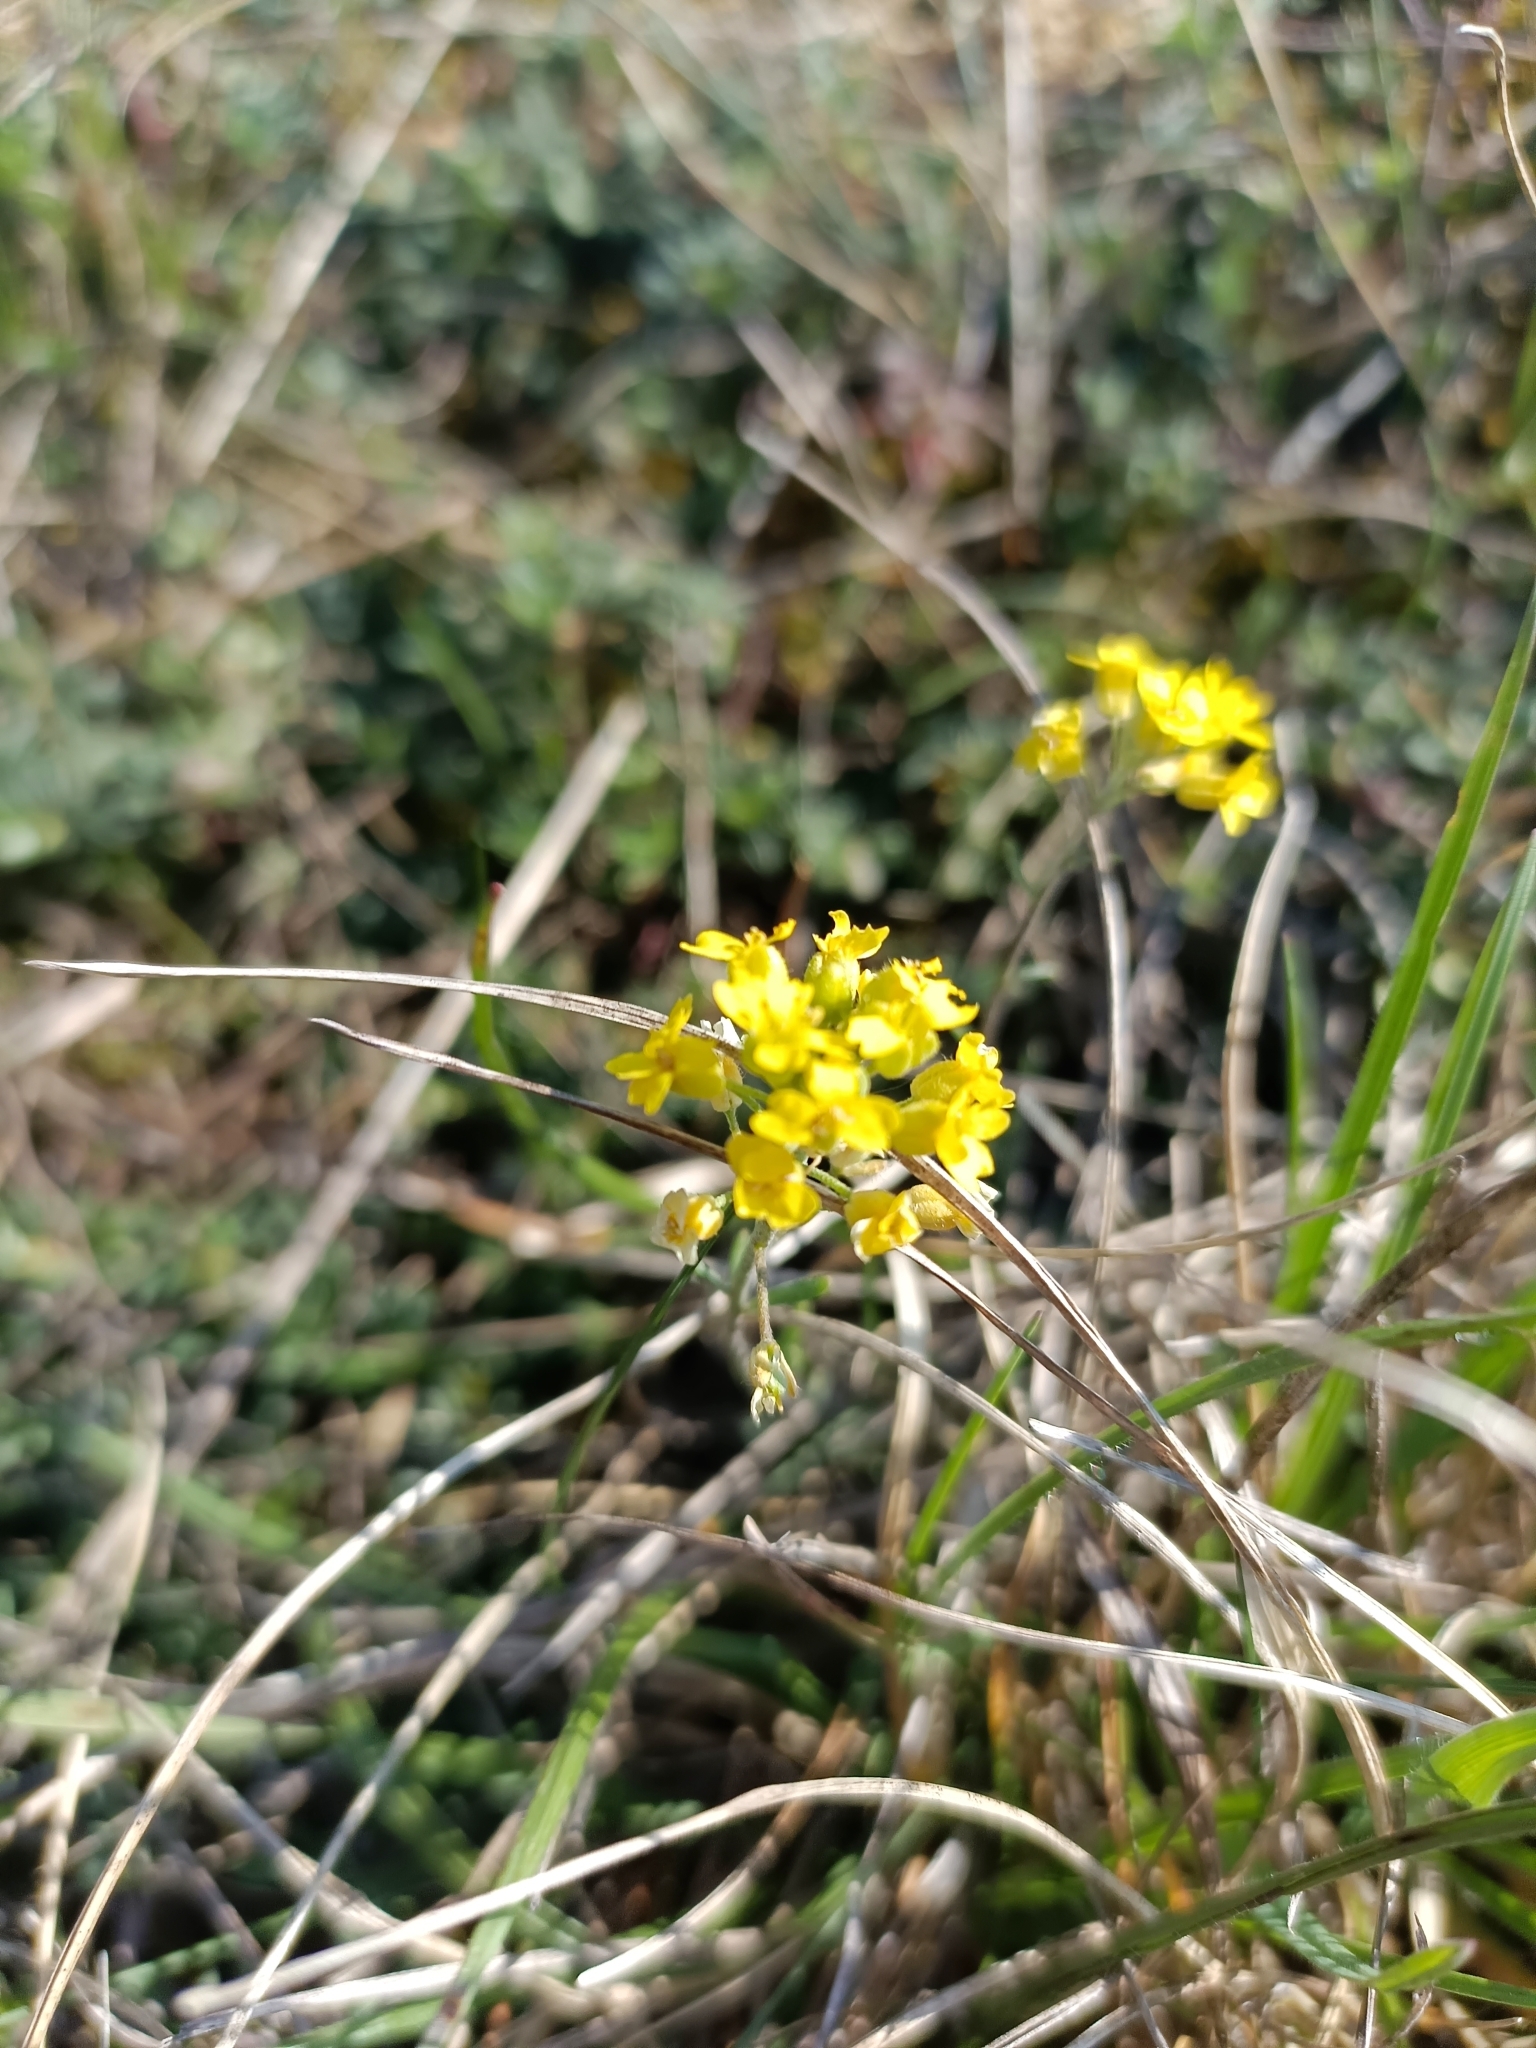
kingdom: Plantae
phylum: Tracheophyta
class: Magnoliopsida
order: Brassicales
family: Brassicaceae
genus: Alyssum
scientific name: Alyssum gmelinii
